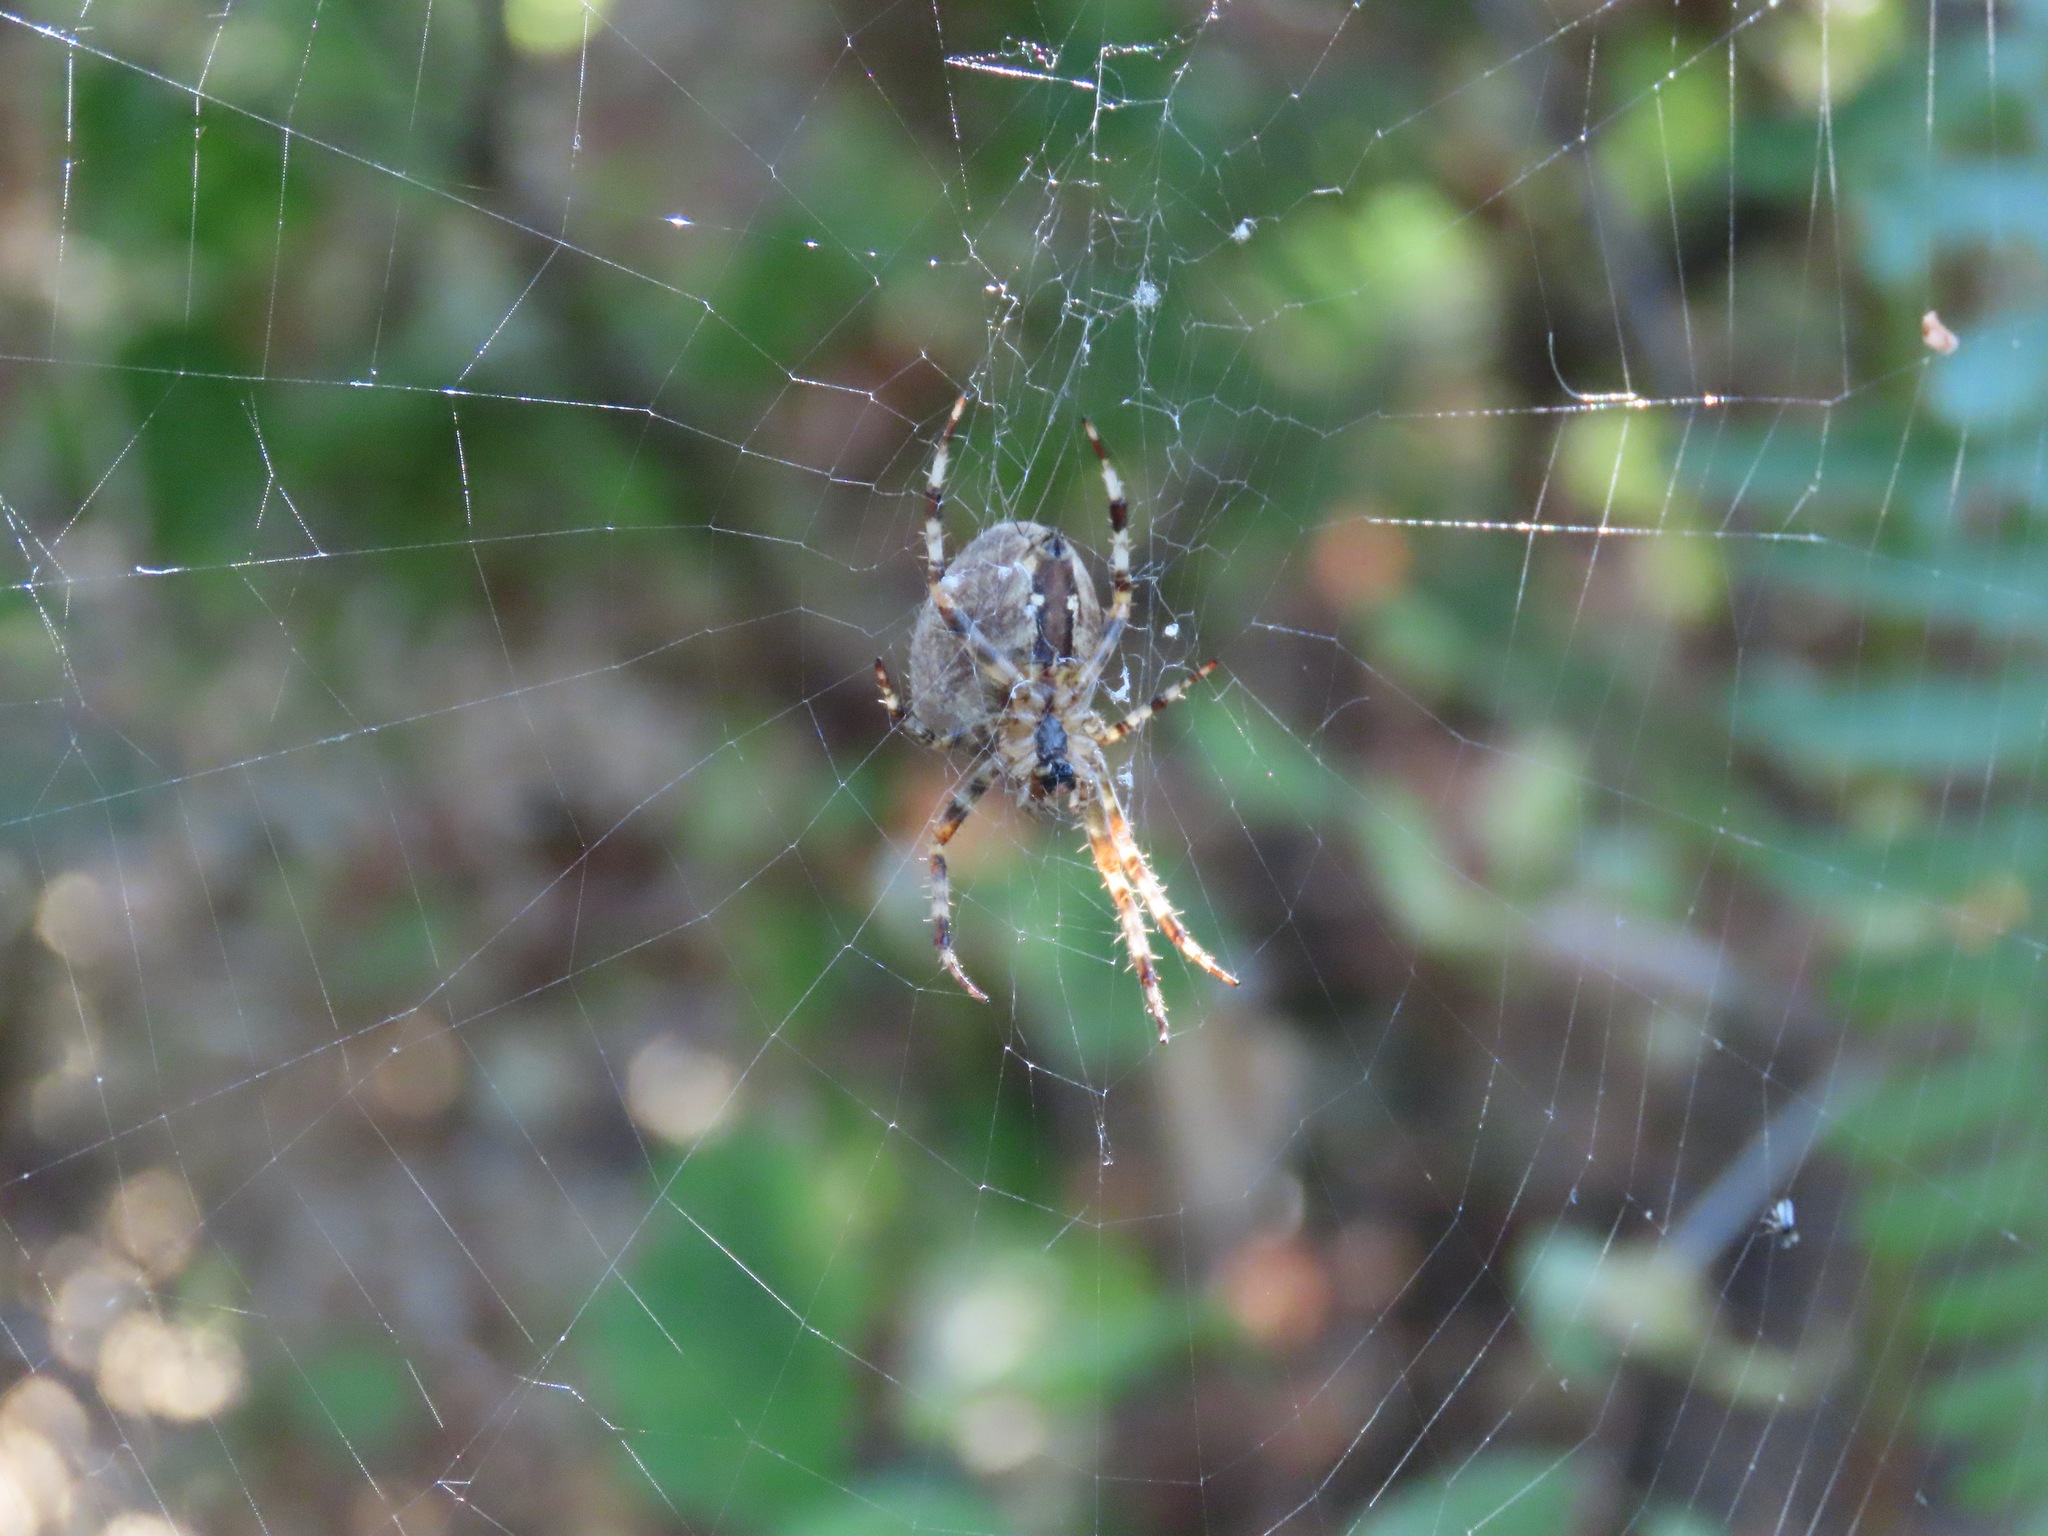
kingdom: Animalia
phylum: Arthropoda
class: Arachnida
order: Araneae
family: Araneidae
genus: Araneus
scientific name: Araneus diadematus
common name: Cross orbweaver
